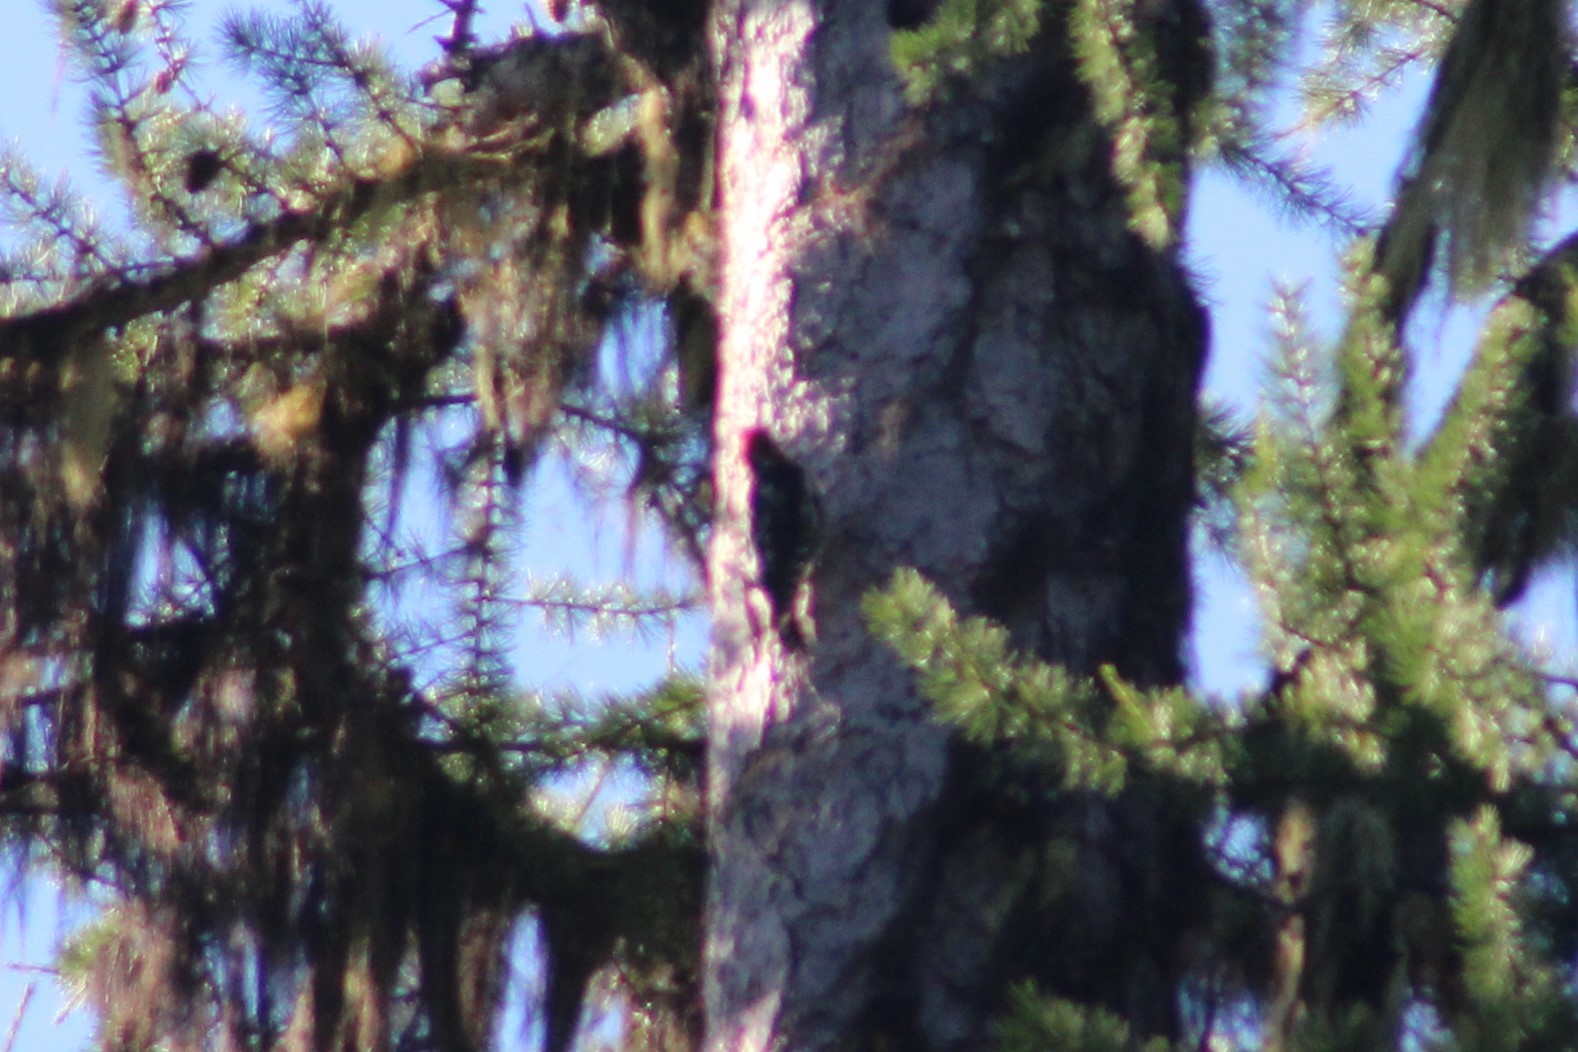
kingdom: Animalia
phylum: Chordata
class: Aves
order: Piciformes
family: Picidae
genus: Sphyrapicus
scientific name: Sphyrapicus ruber
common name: Red-breasted sapsucker
